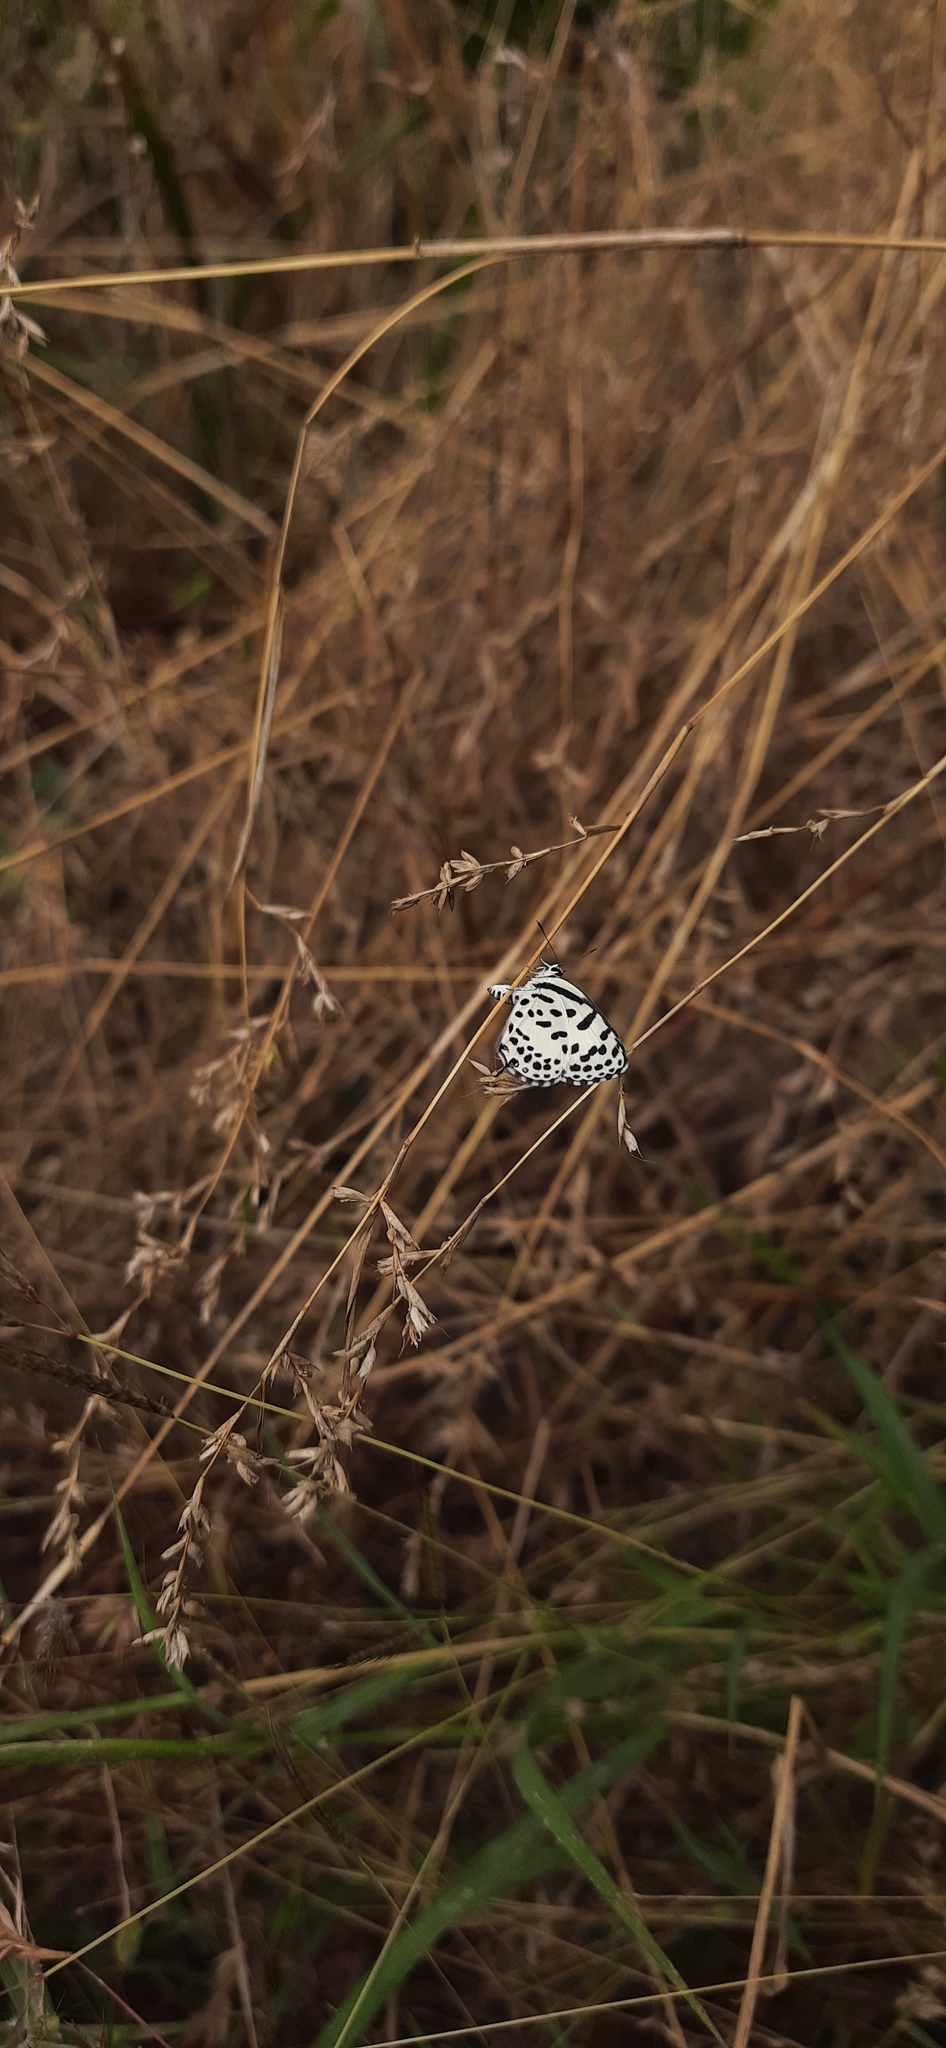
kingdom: Animalia
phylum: Arthropoda
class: Insecta
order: Lepidoptera
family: Lycaenidae
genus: Castalius
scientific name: Castalius rosimon
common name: Common pierrot
